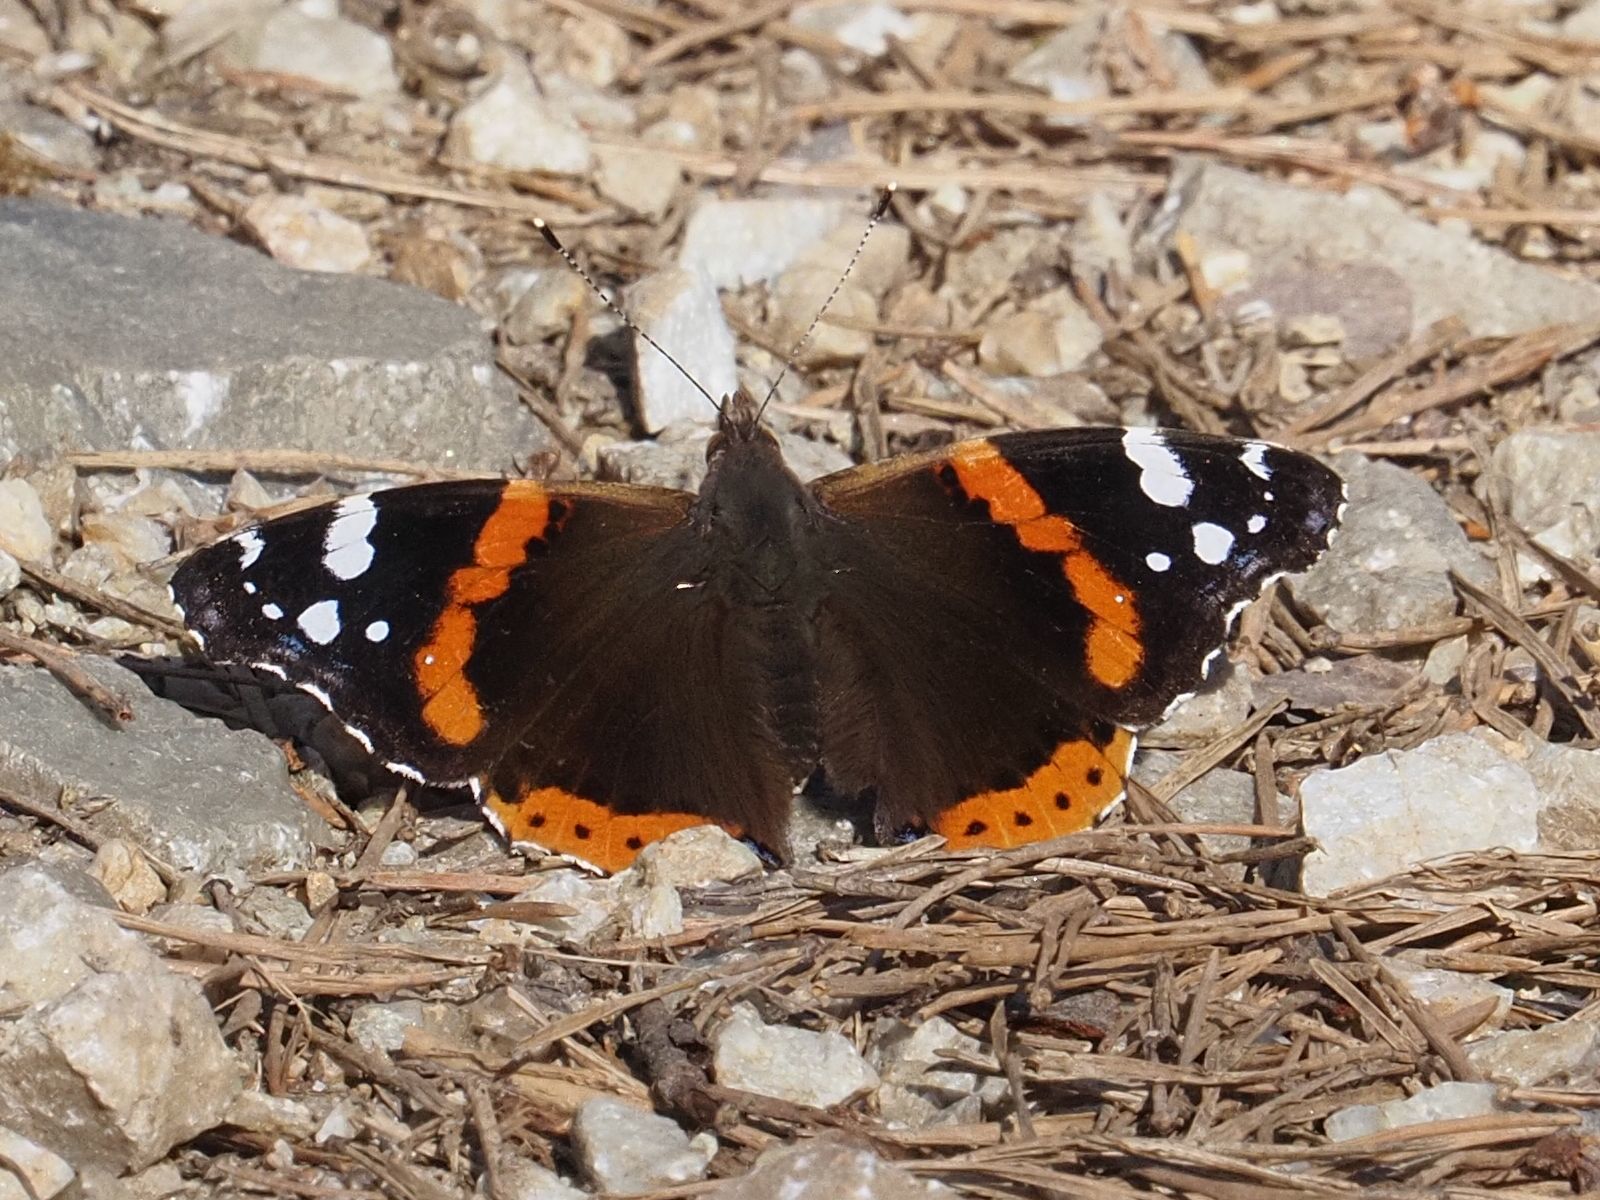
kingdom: Animalia
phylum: Arthropoda
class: Insecta
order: Lepidoptera
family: Nymphalidae
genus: Vanessa
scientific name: Vanessa atalanta
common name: Red admiral
